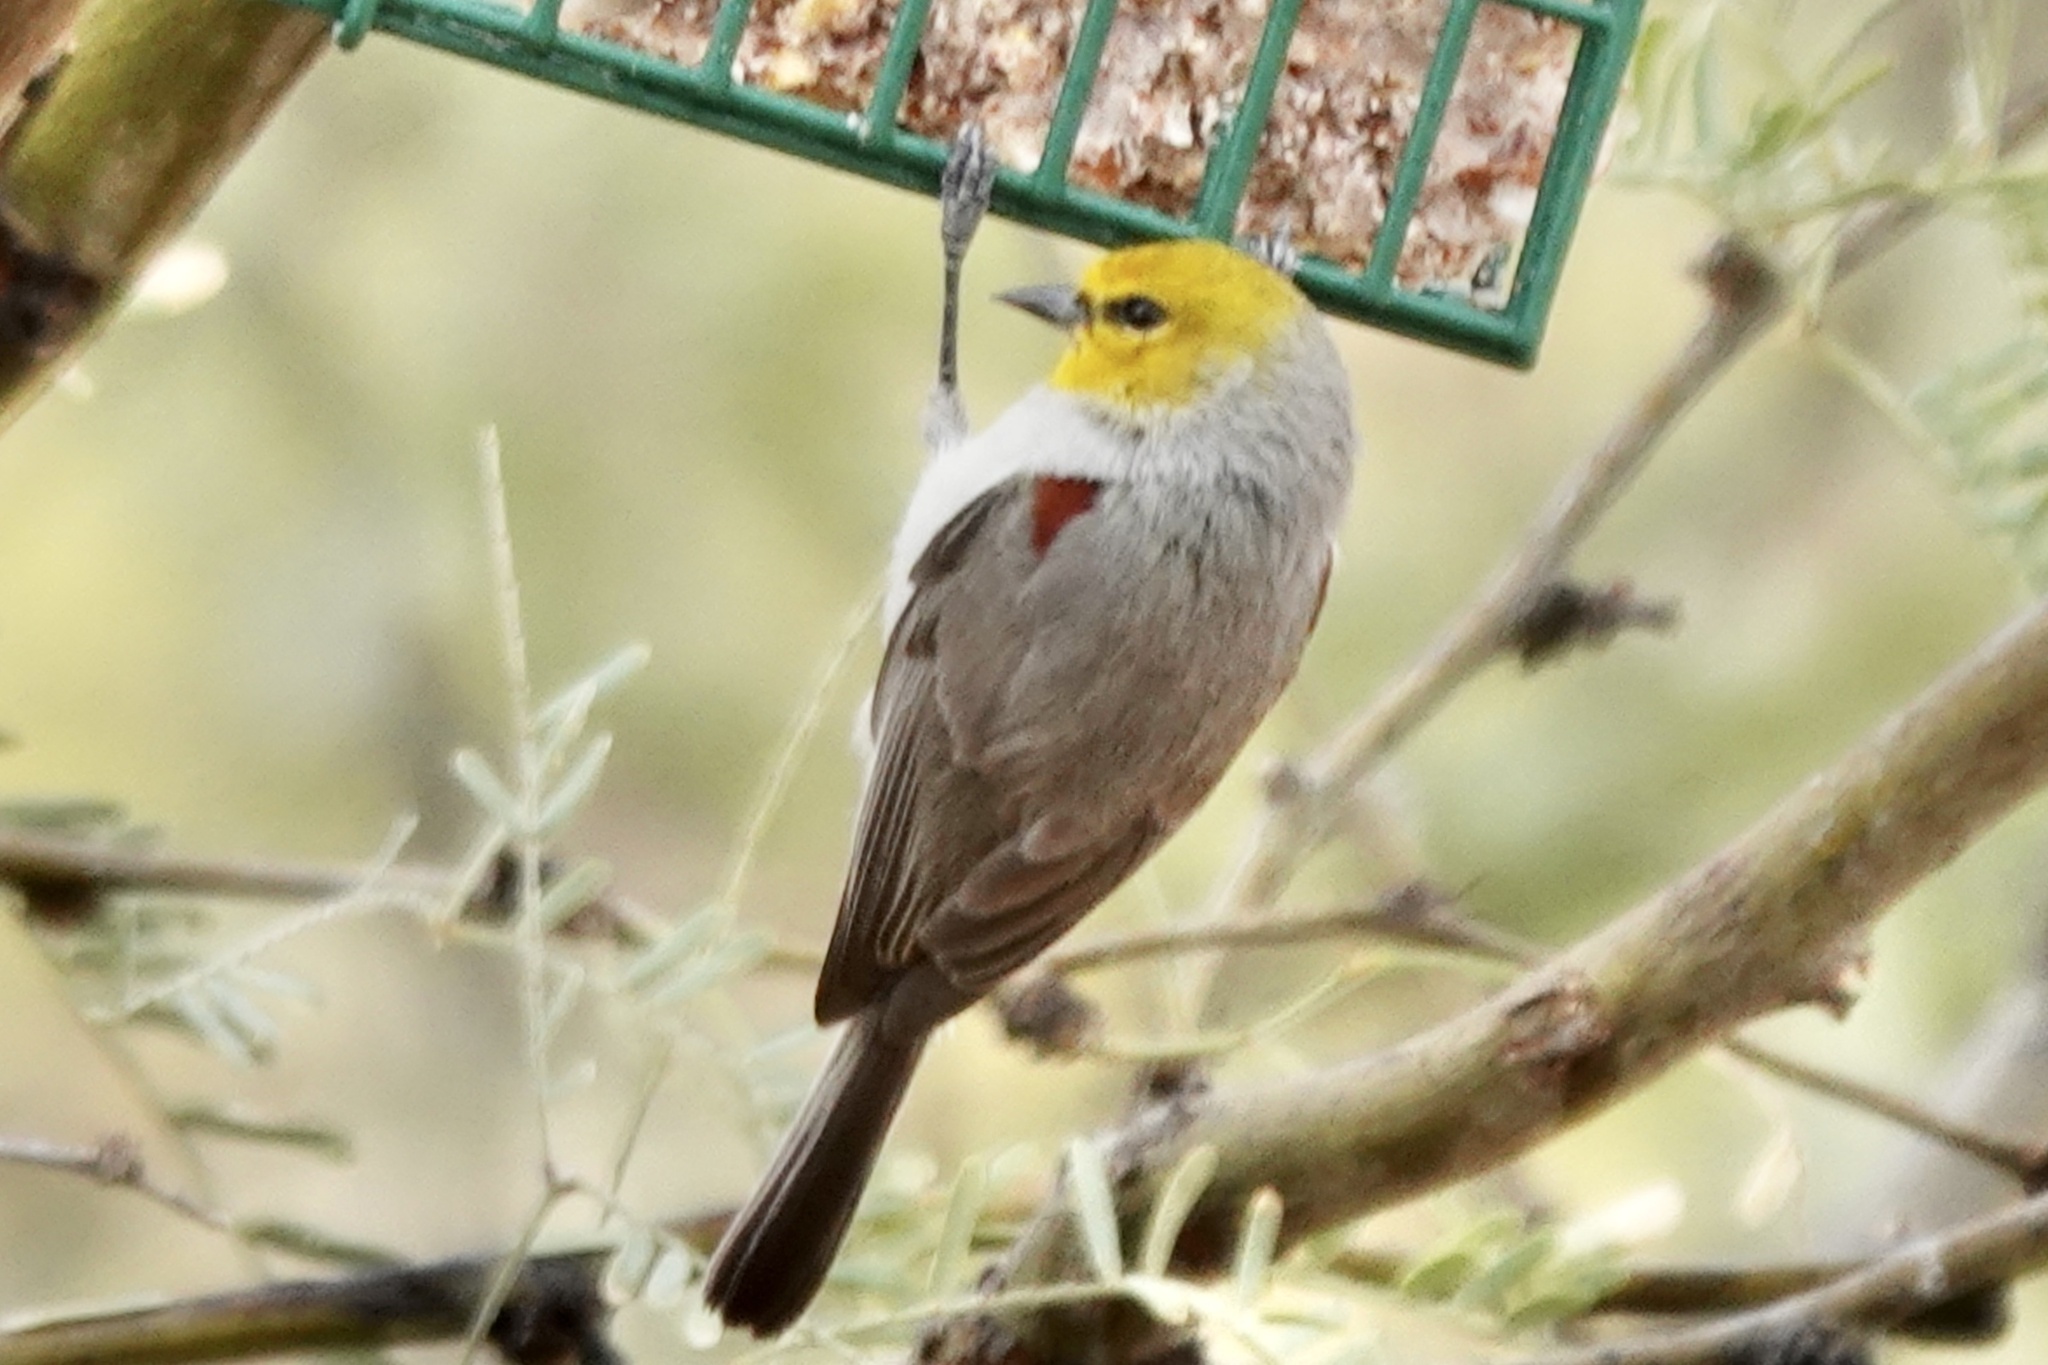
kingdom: Animalia
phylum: Chordata
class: Aves
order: Passeriformes
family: Remizidae
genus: Auriparus
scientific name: Auriparus flaviceps
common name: Verdin
